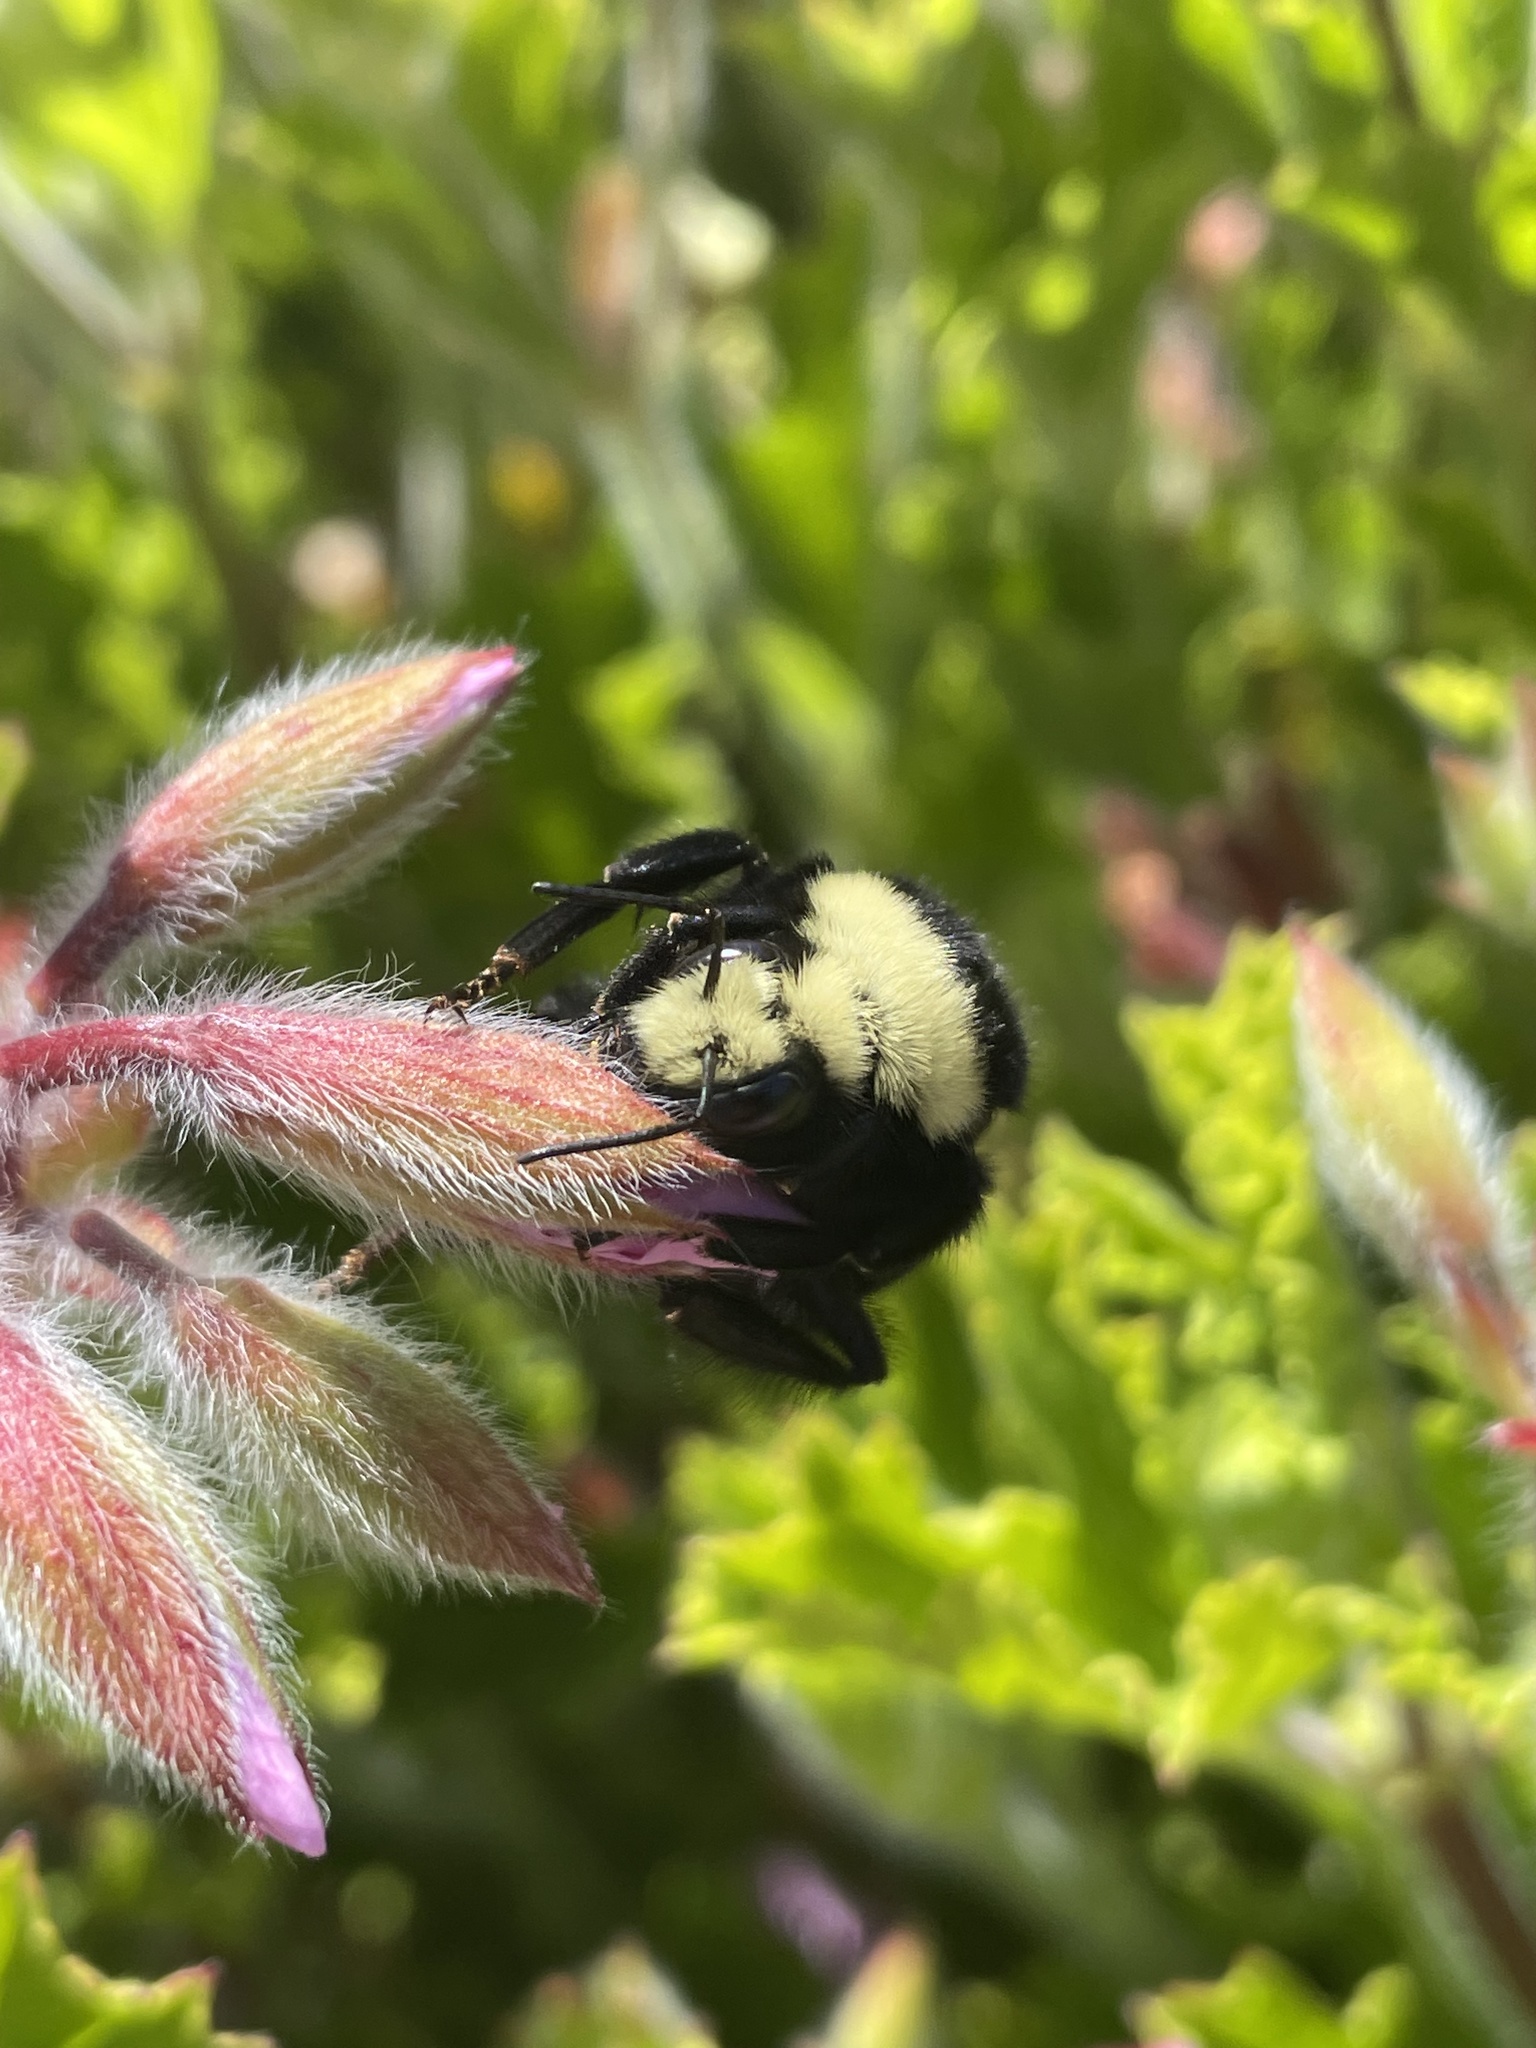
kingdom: Animalia
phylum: Arthropoda
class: Insecta
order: Hymenoptera
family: Apidae
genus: Bombus
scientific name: Bombus vosnesenskii
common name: Vosnesensky bumble bee
